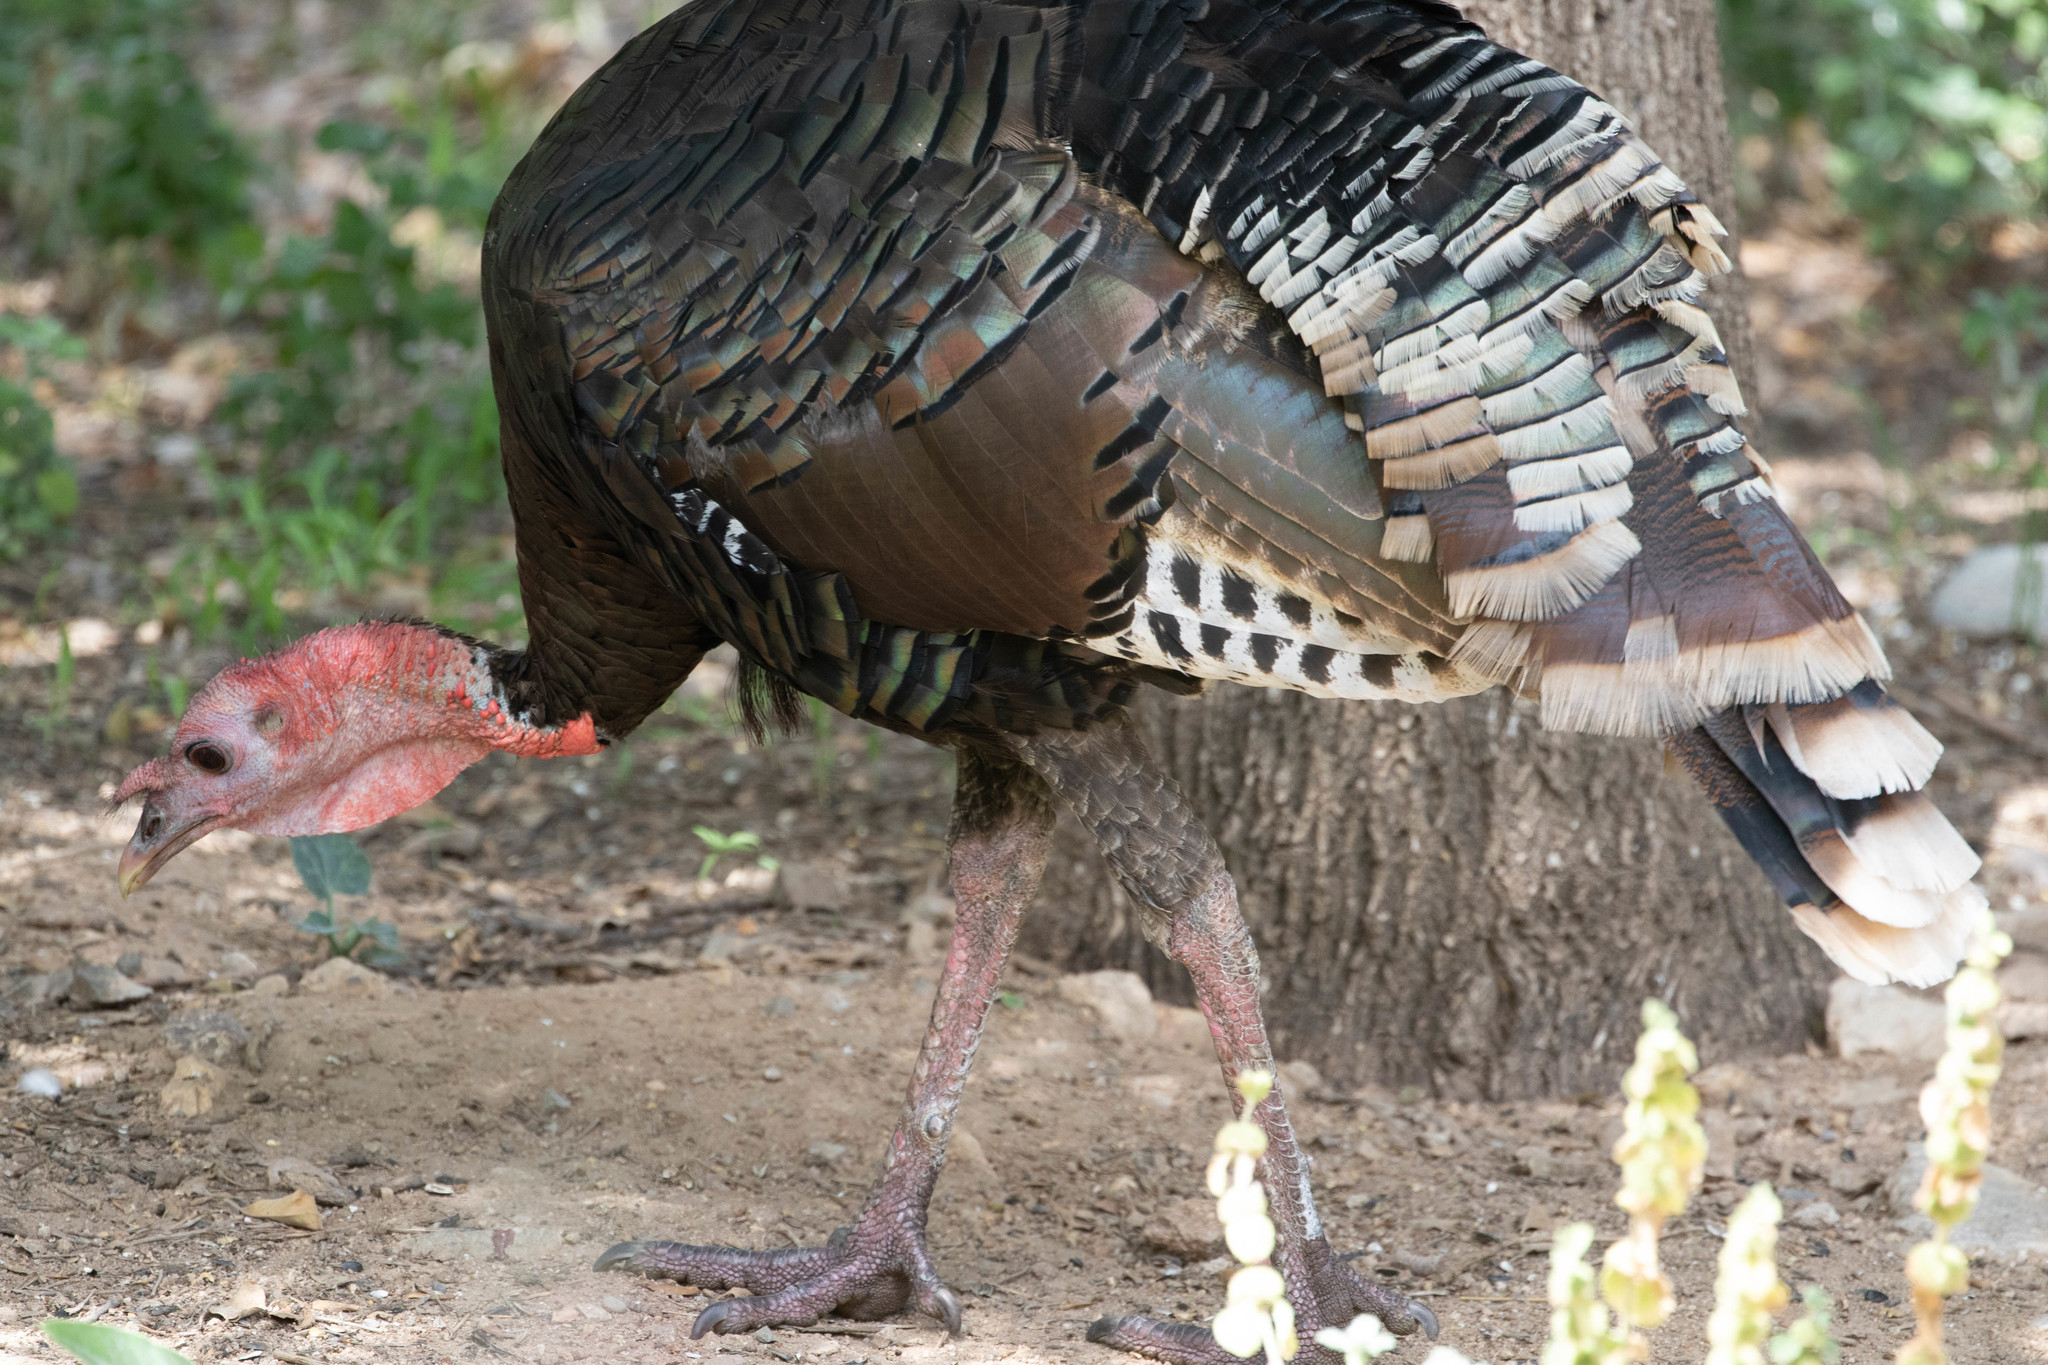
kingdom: Animalia
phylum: Chordata
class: Aves
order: Galliformes
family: Phasianidae
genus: Meleagris
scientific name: Meleagris gallopavo
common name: Wild turkey
